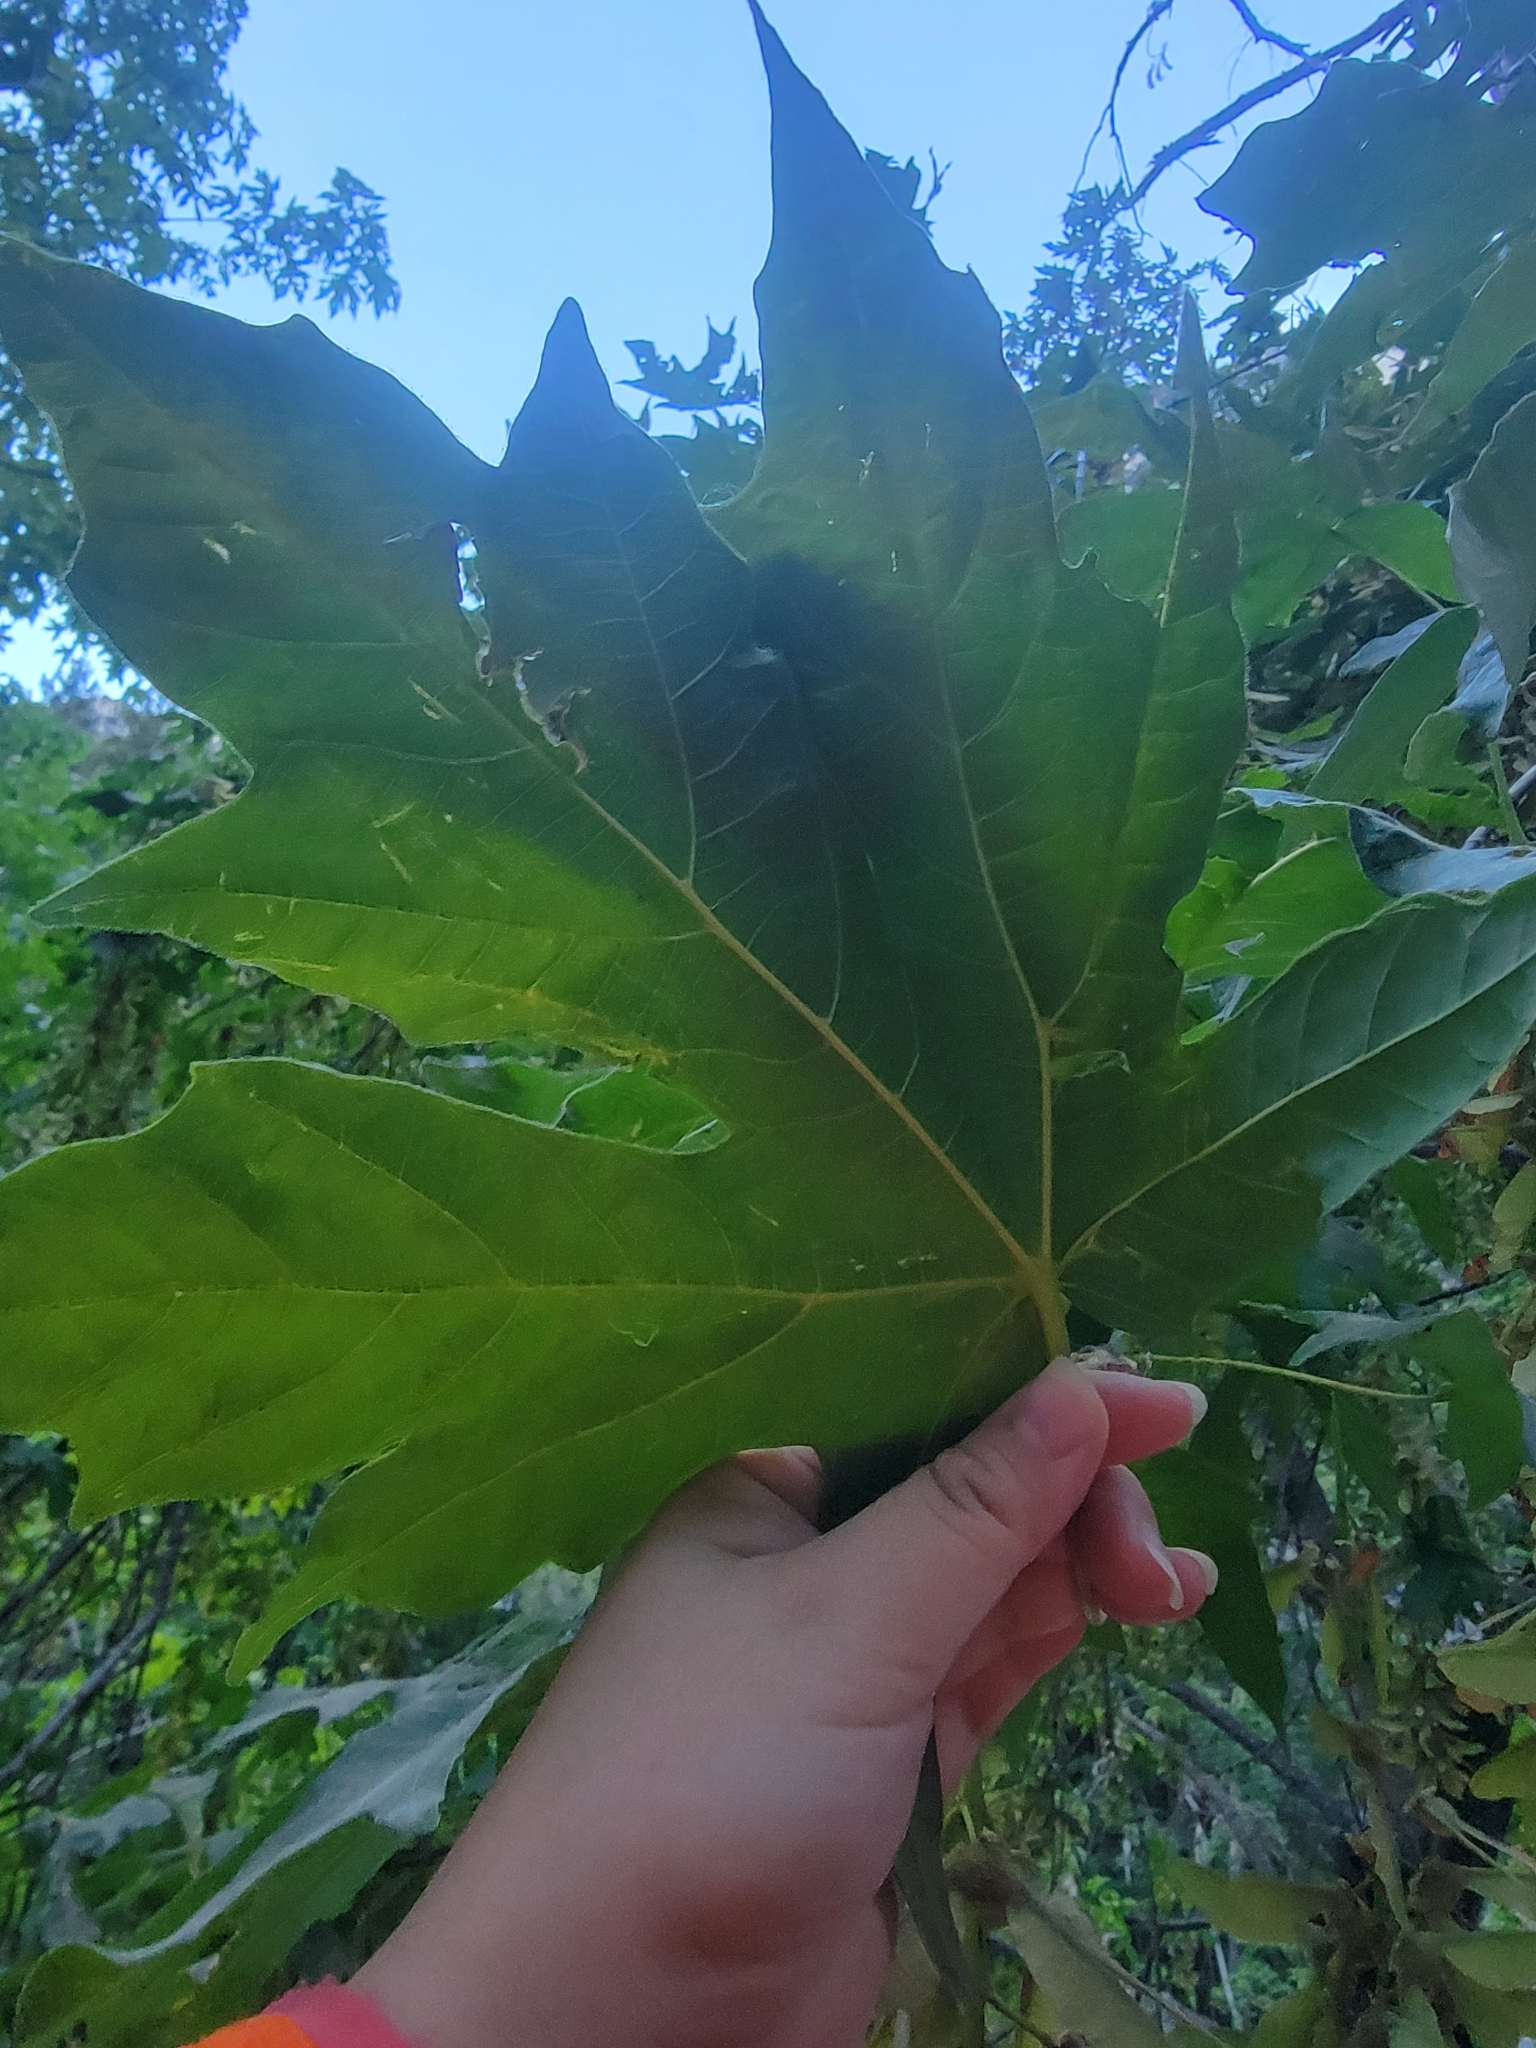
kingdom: Plantae
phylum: Tracheophyta
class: Magnoliopsida
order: Sapindales
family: Sapindaceae
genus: Acer
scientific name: Acer macrophyllum
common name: Oregon maple
